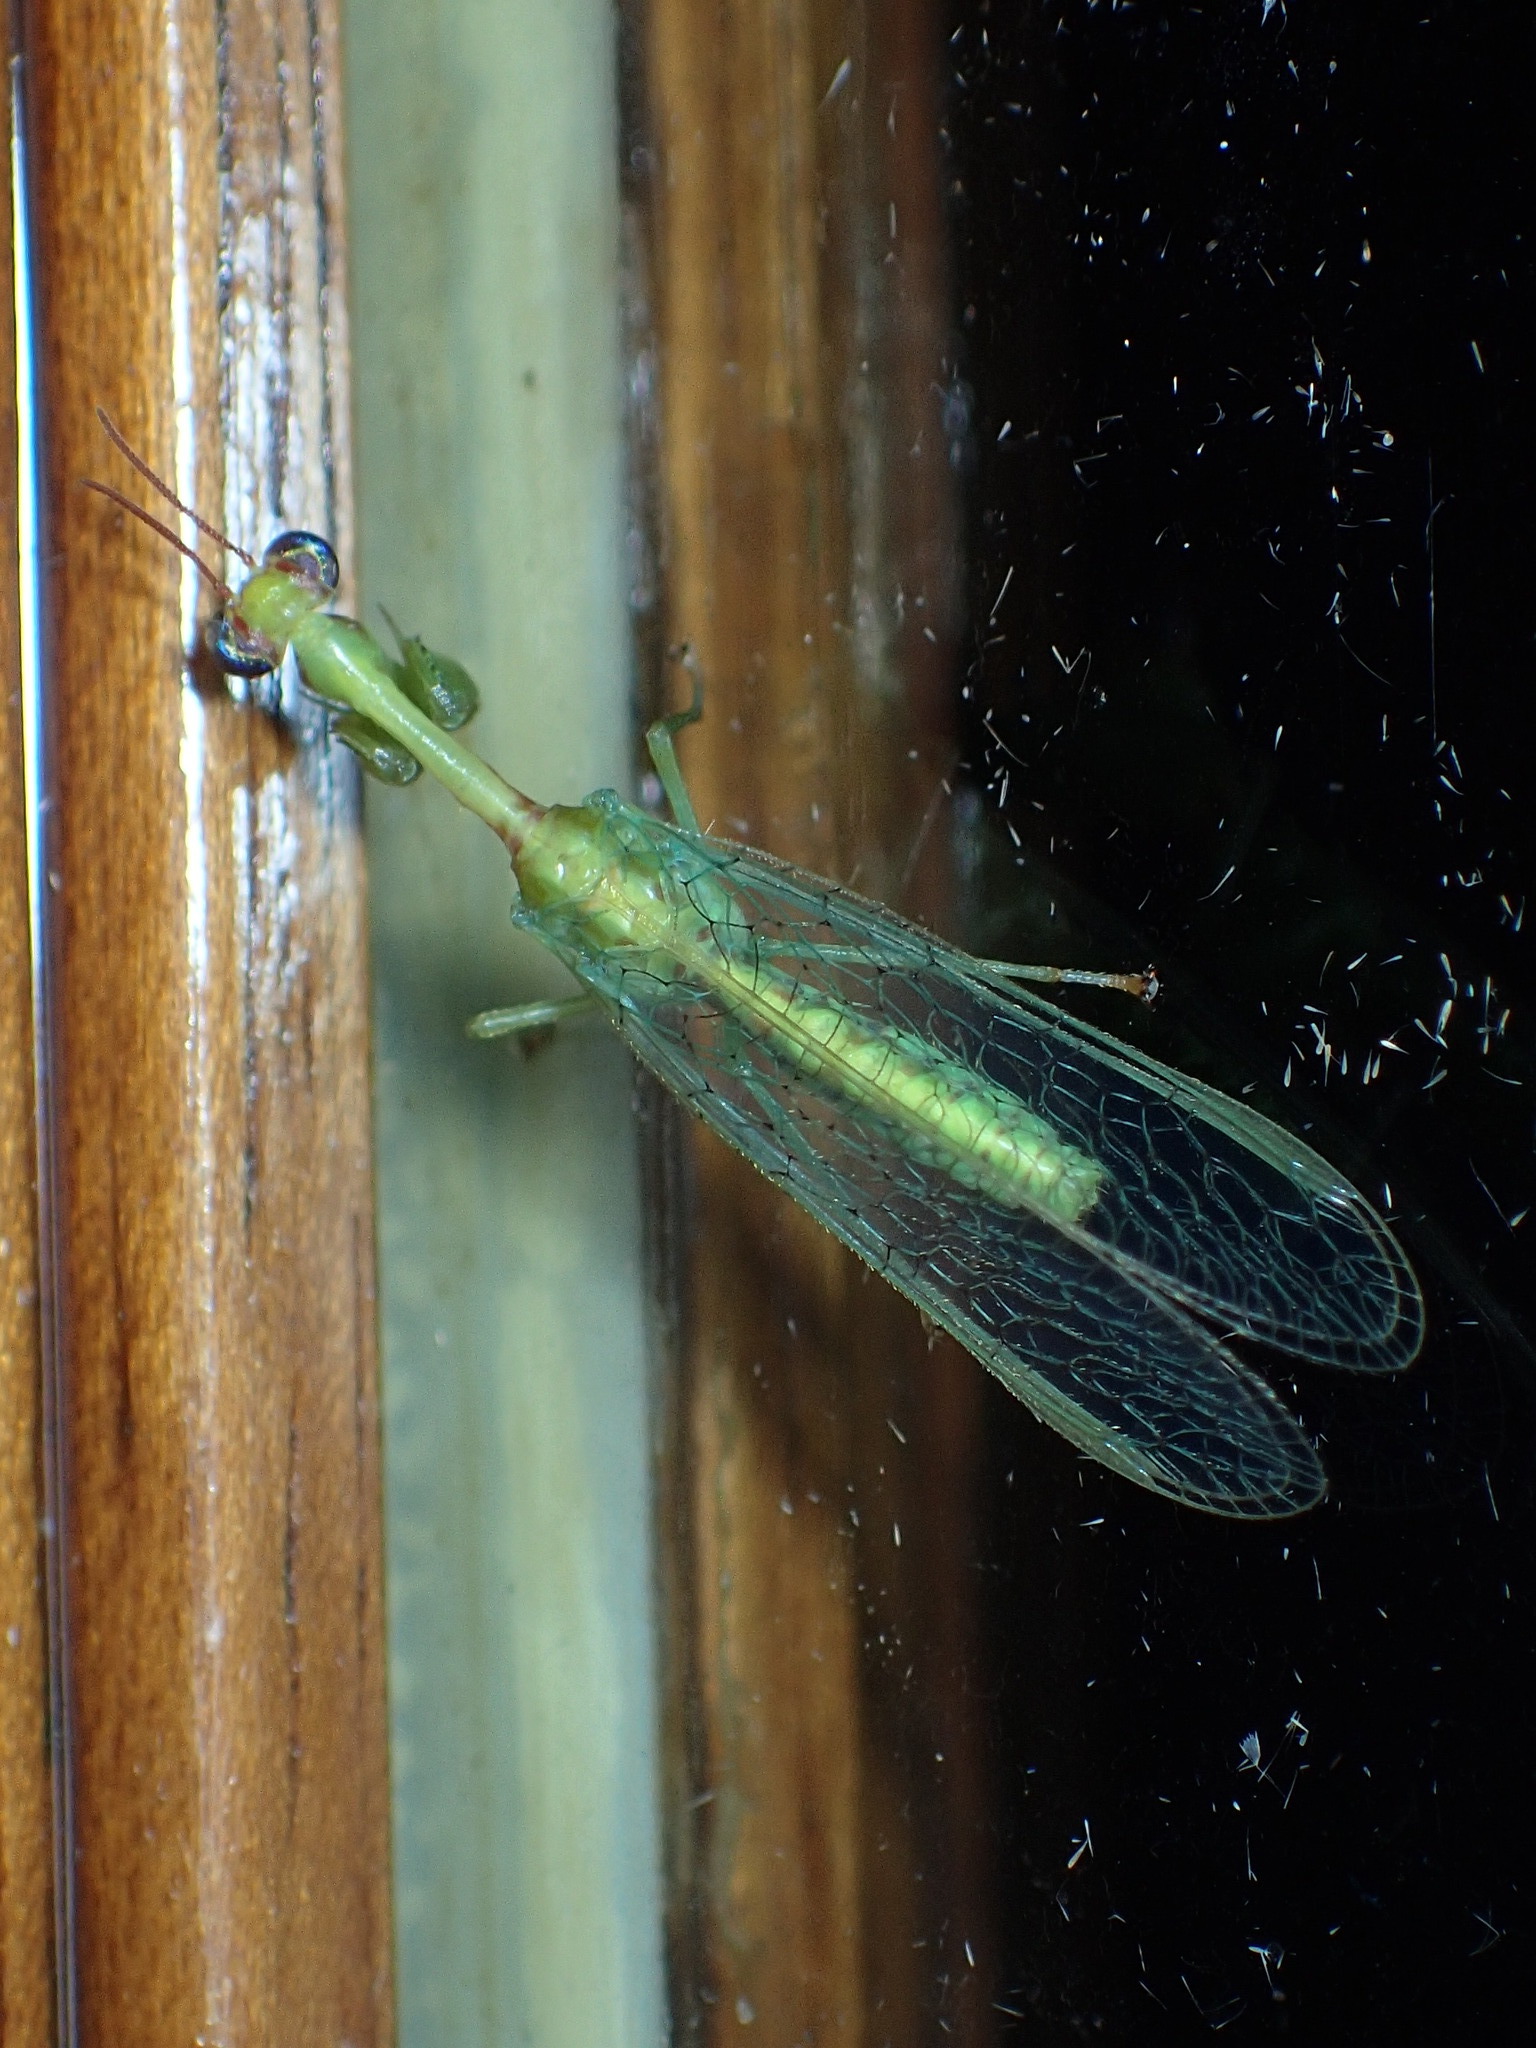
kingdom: Animalia
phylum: Arthropoda
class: Insecta
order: Neuroptera
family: Mantispidae
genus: Zeugomantispa
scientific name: Zeugomantispa minuta
